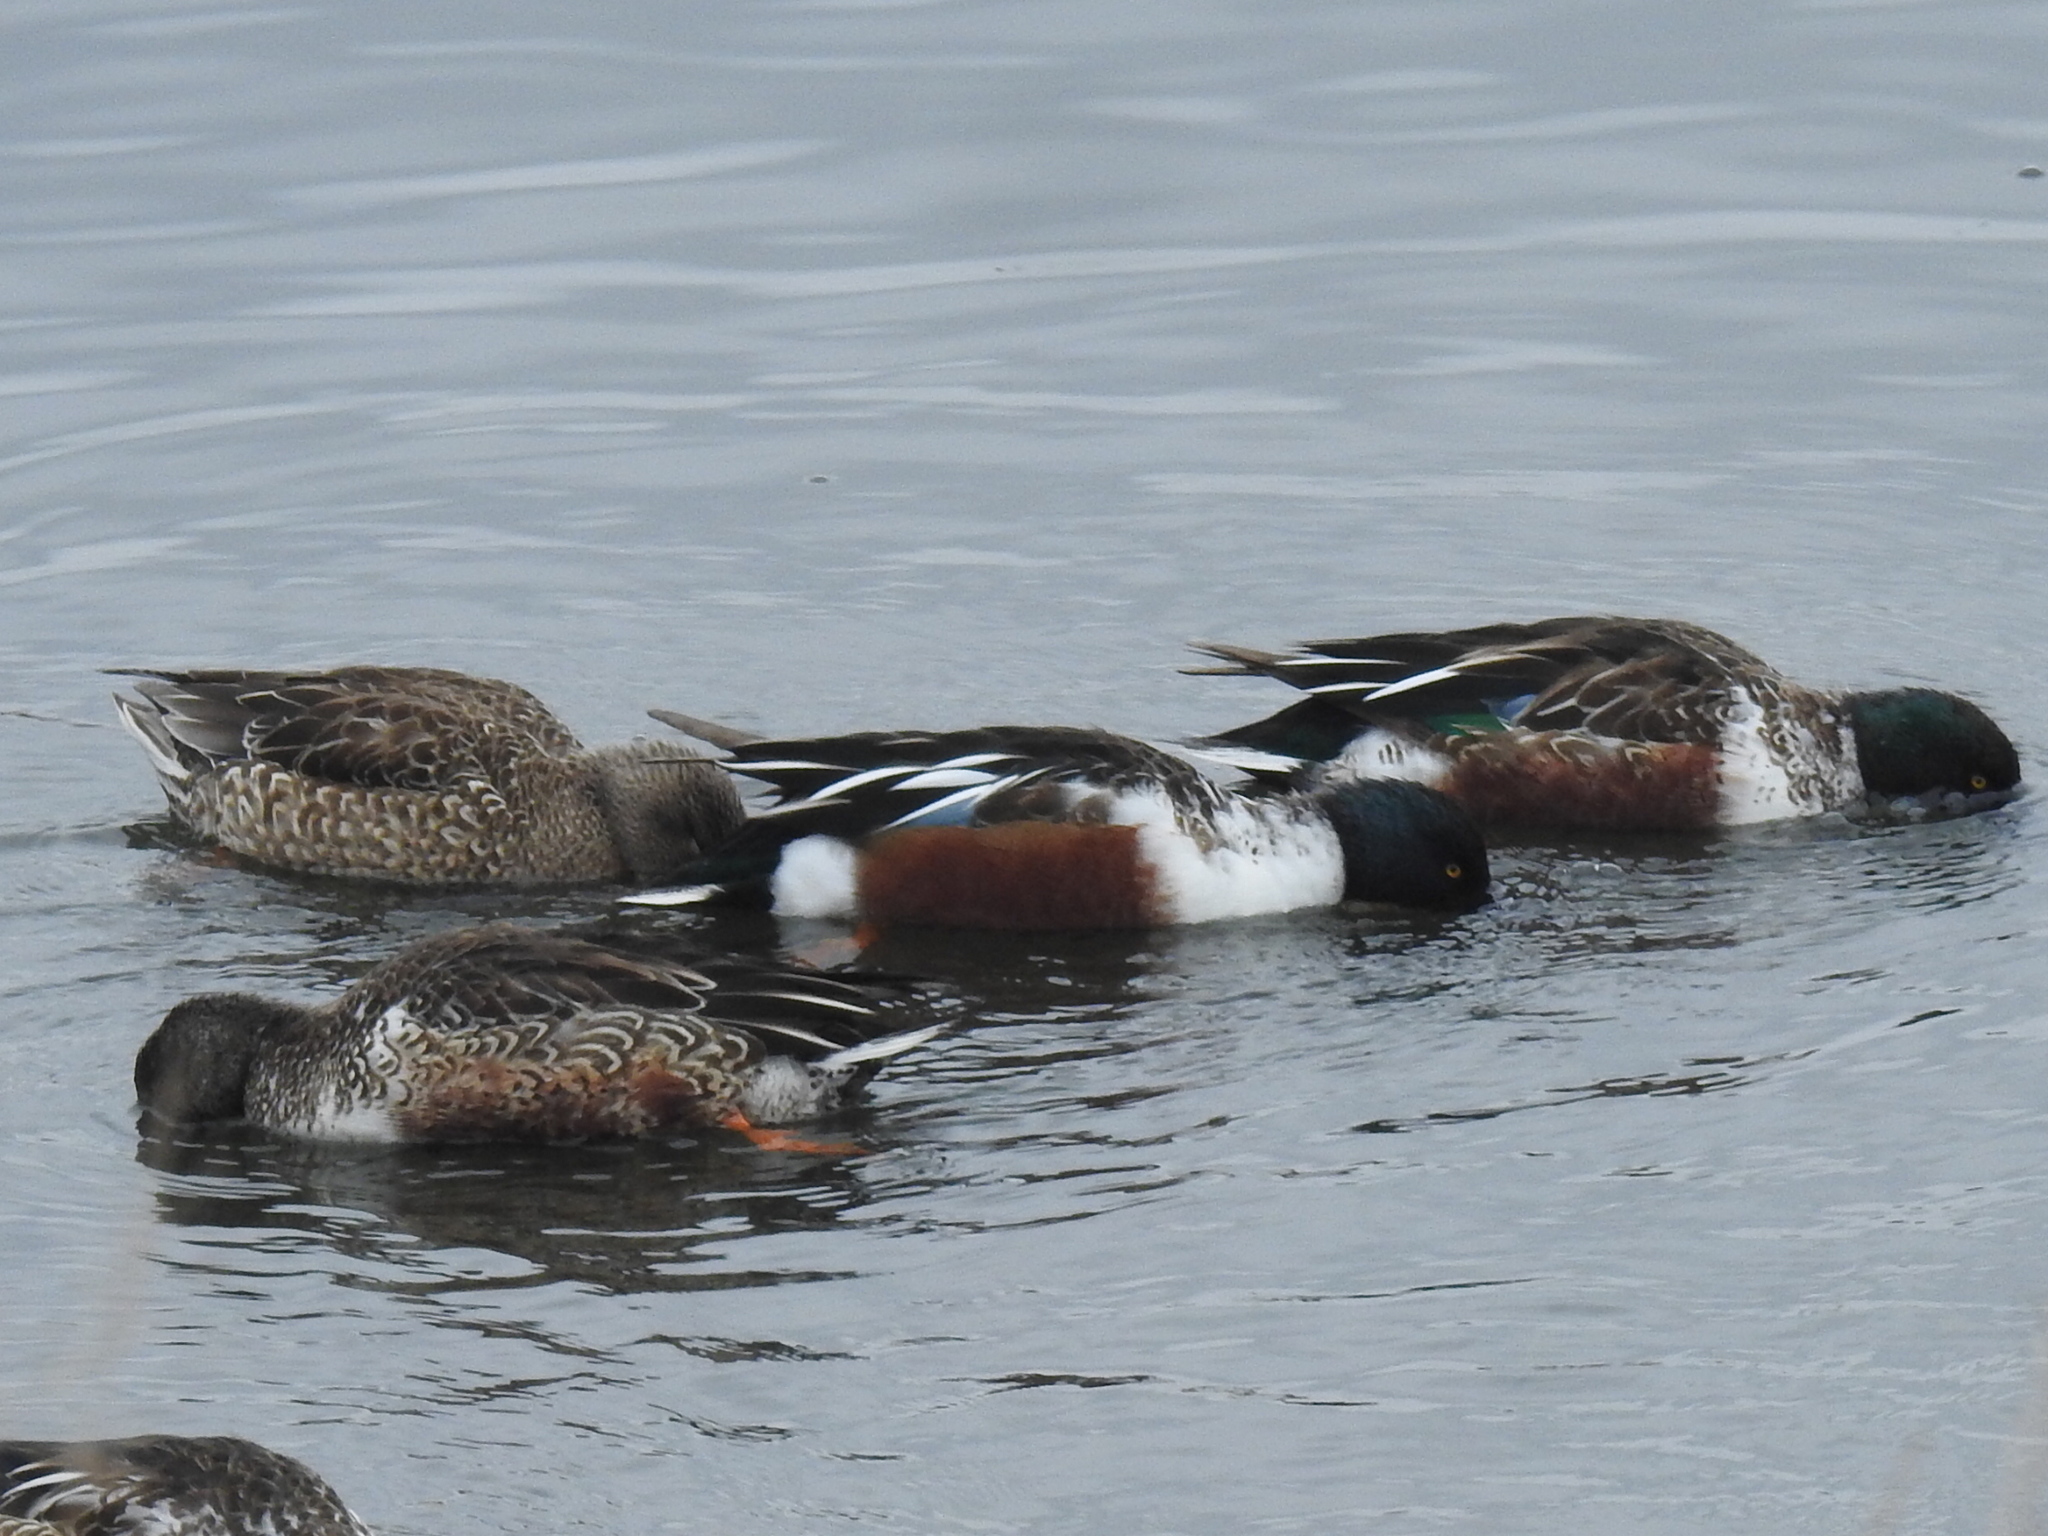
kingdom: Animalia
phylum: Chordata
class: Aves
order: Anseriformes
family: Anatidae
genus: Spatula
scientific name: Spatula clypeata
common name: Northern shoveler
